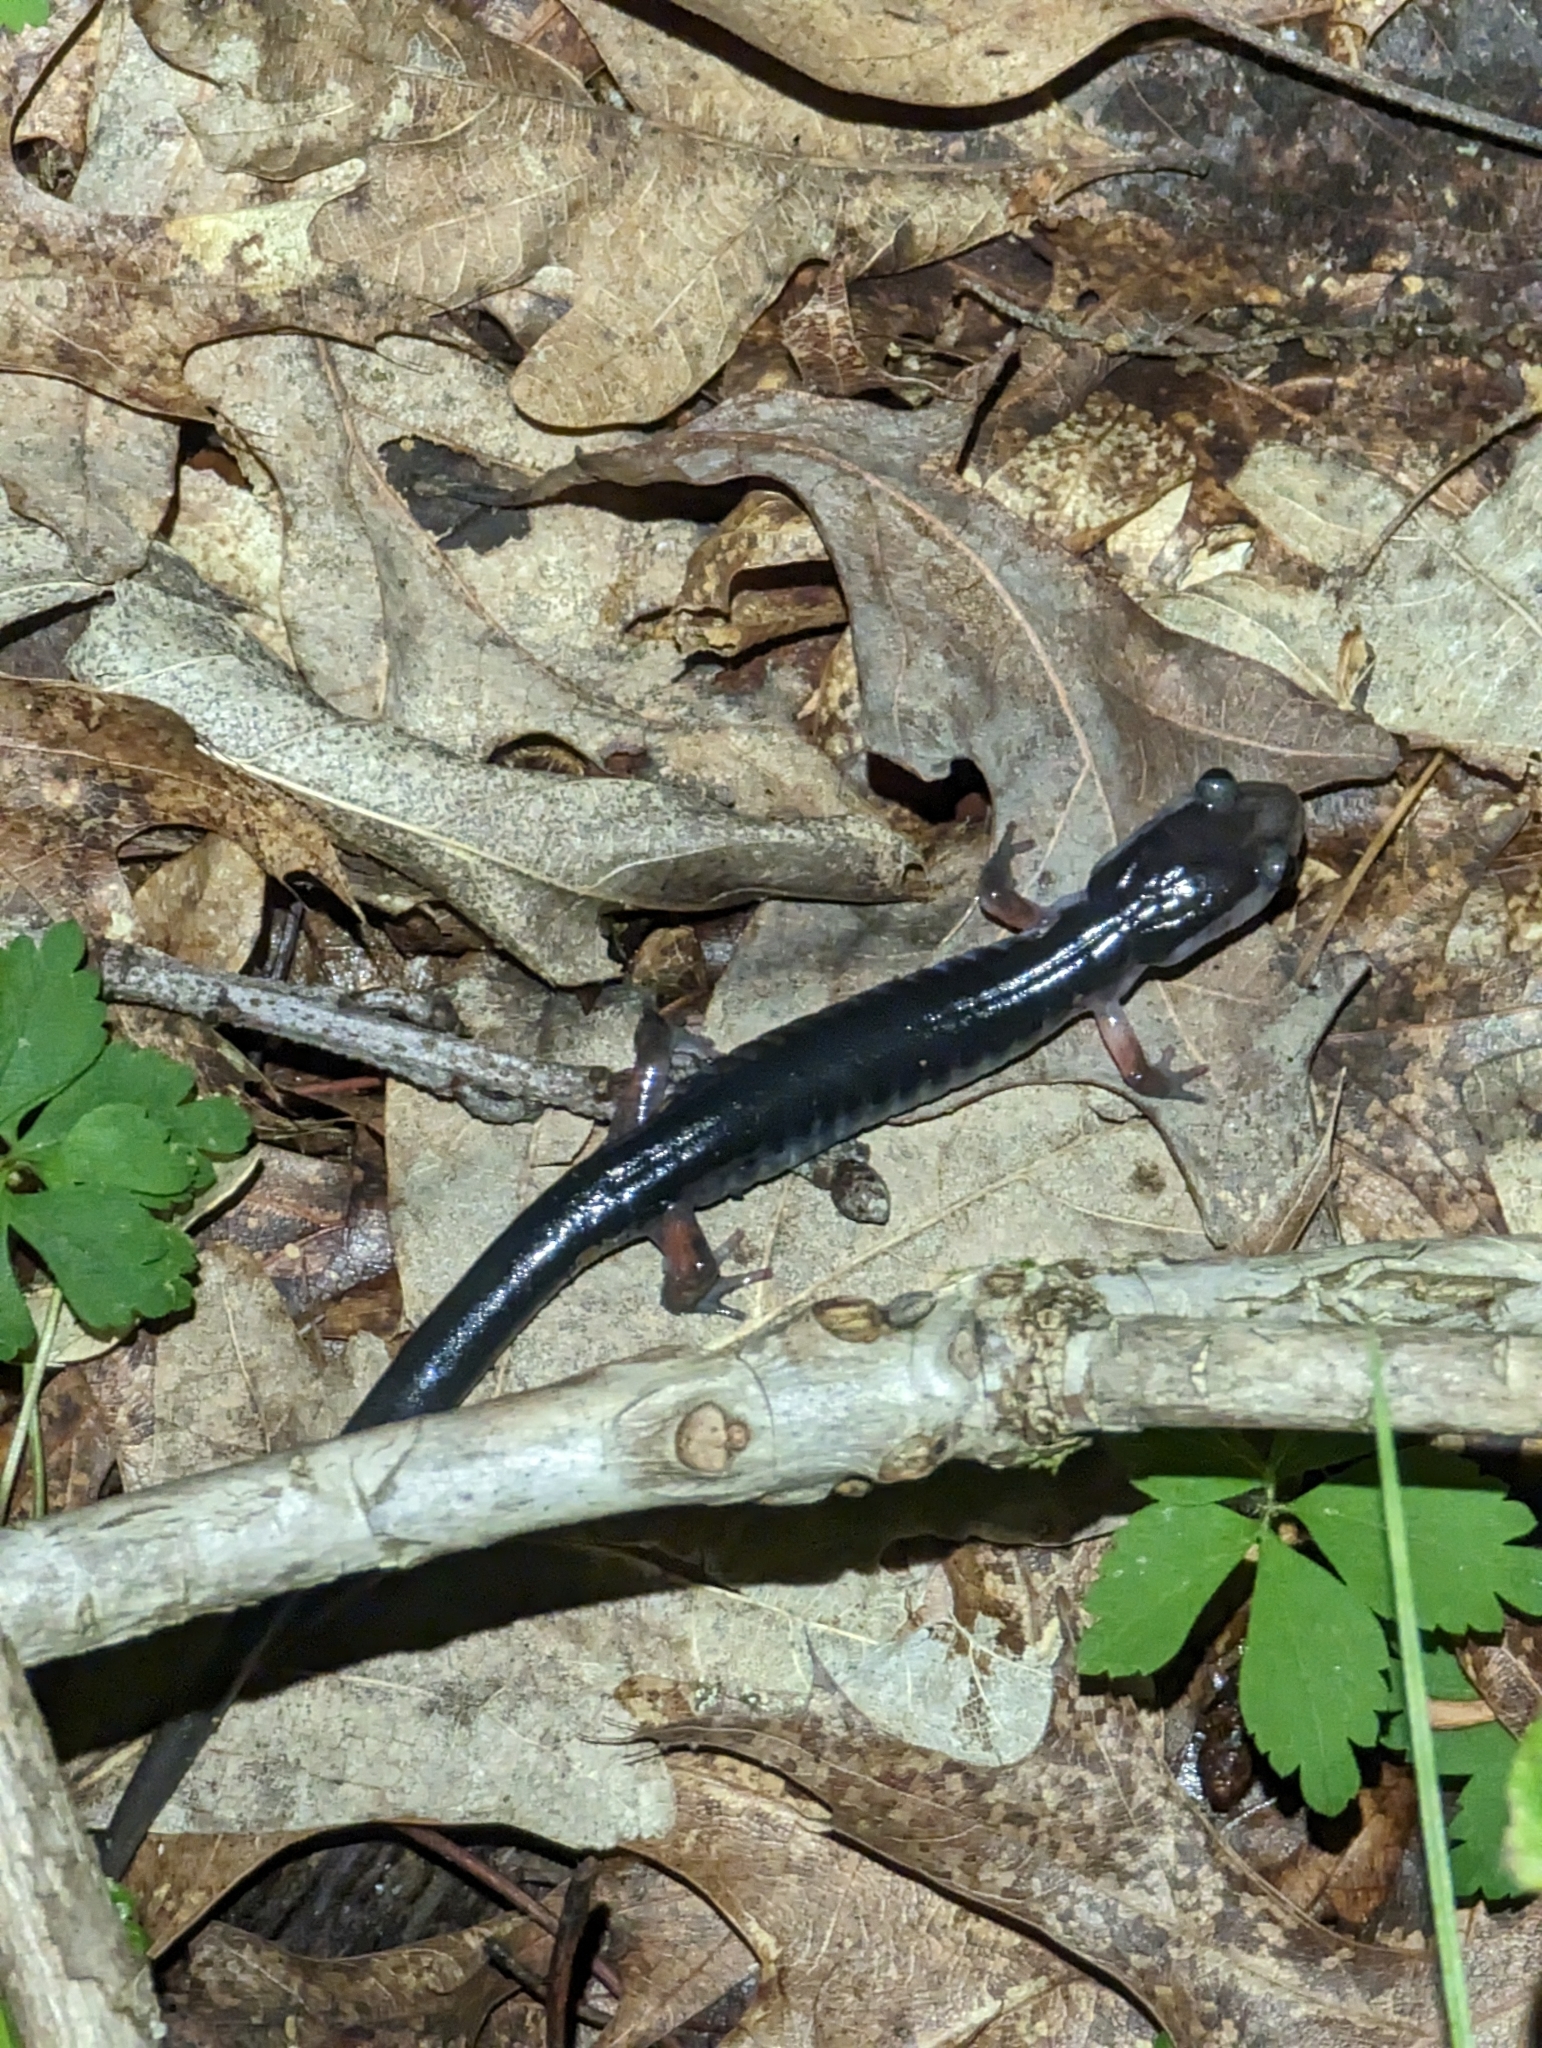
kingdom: Animalia
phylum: Chordata
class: Amphibia
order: Caudata
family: Plethodontidae
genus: Plethodon
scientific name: Plethodon shermani
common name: Red-legged salamander
